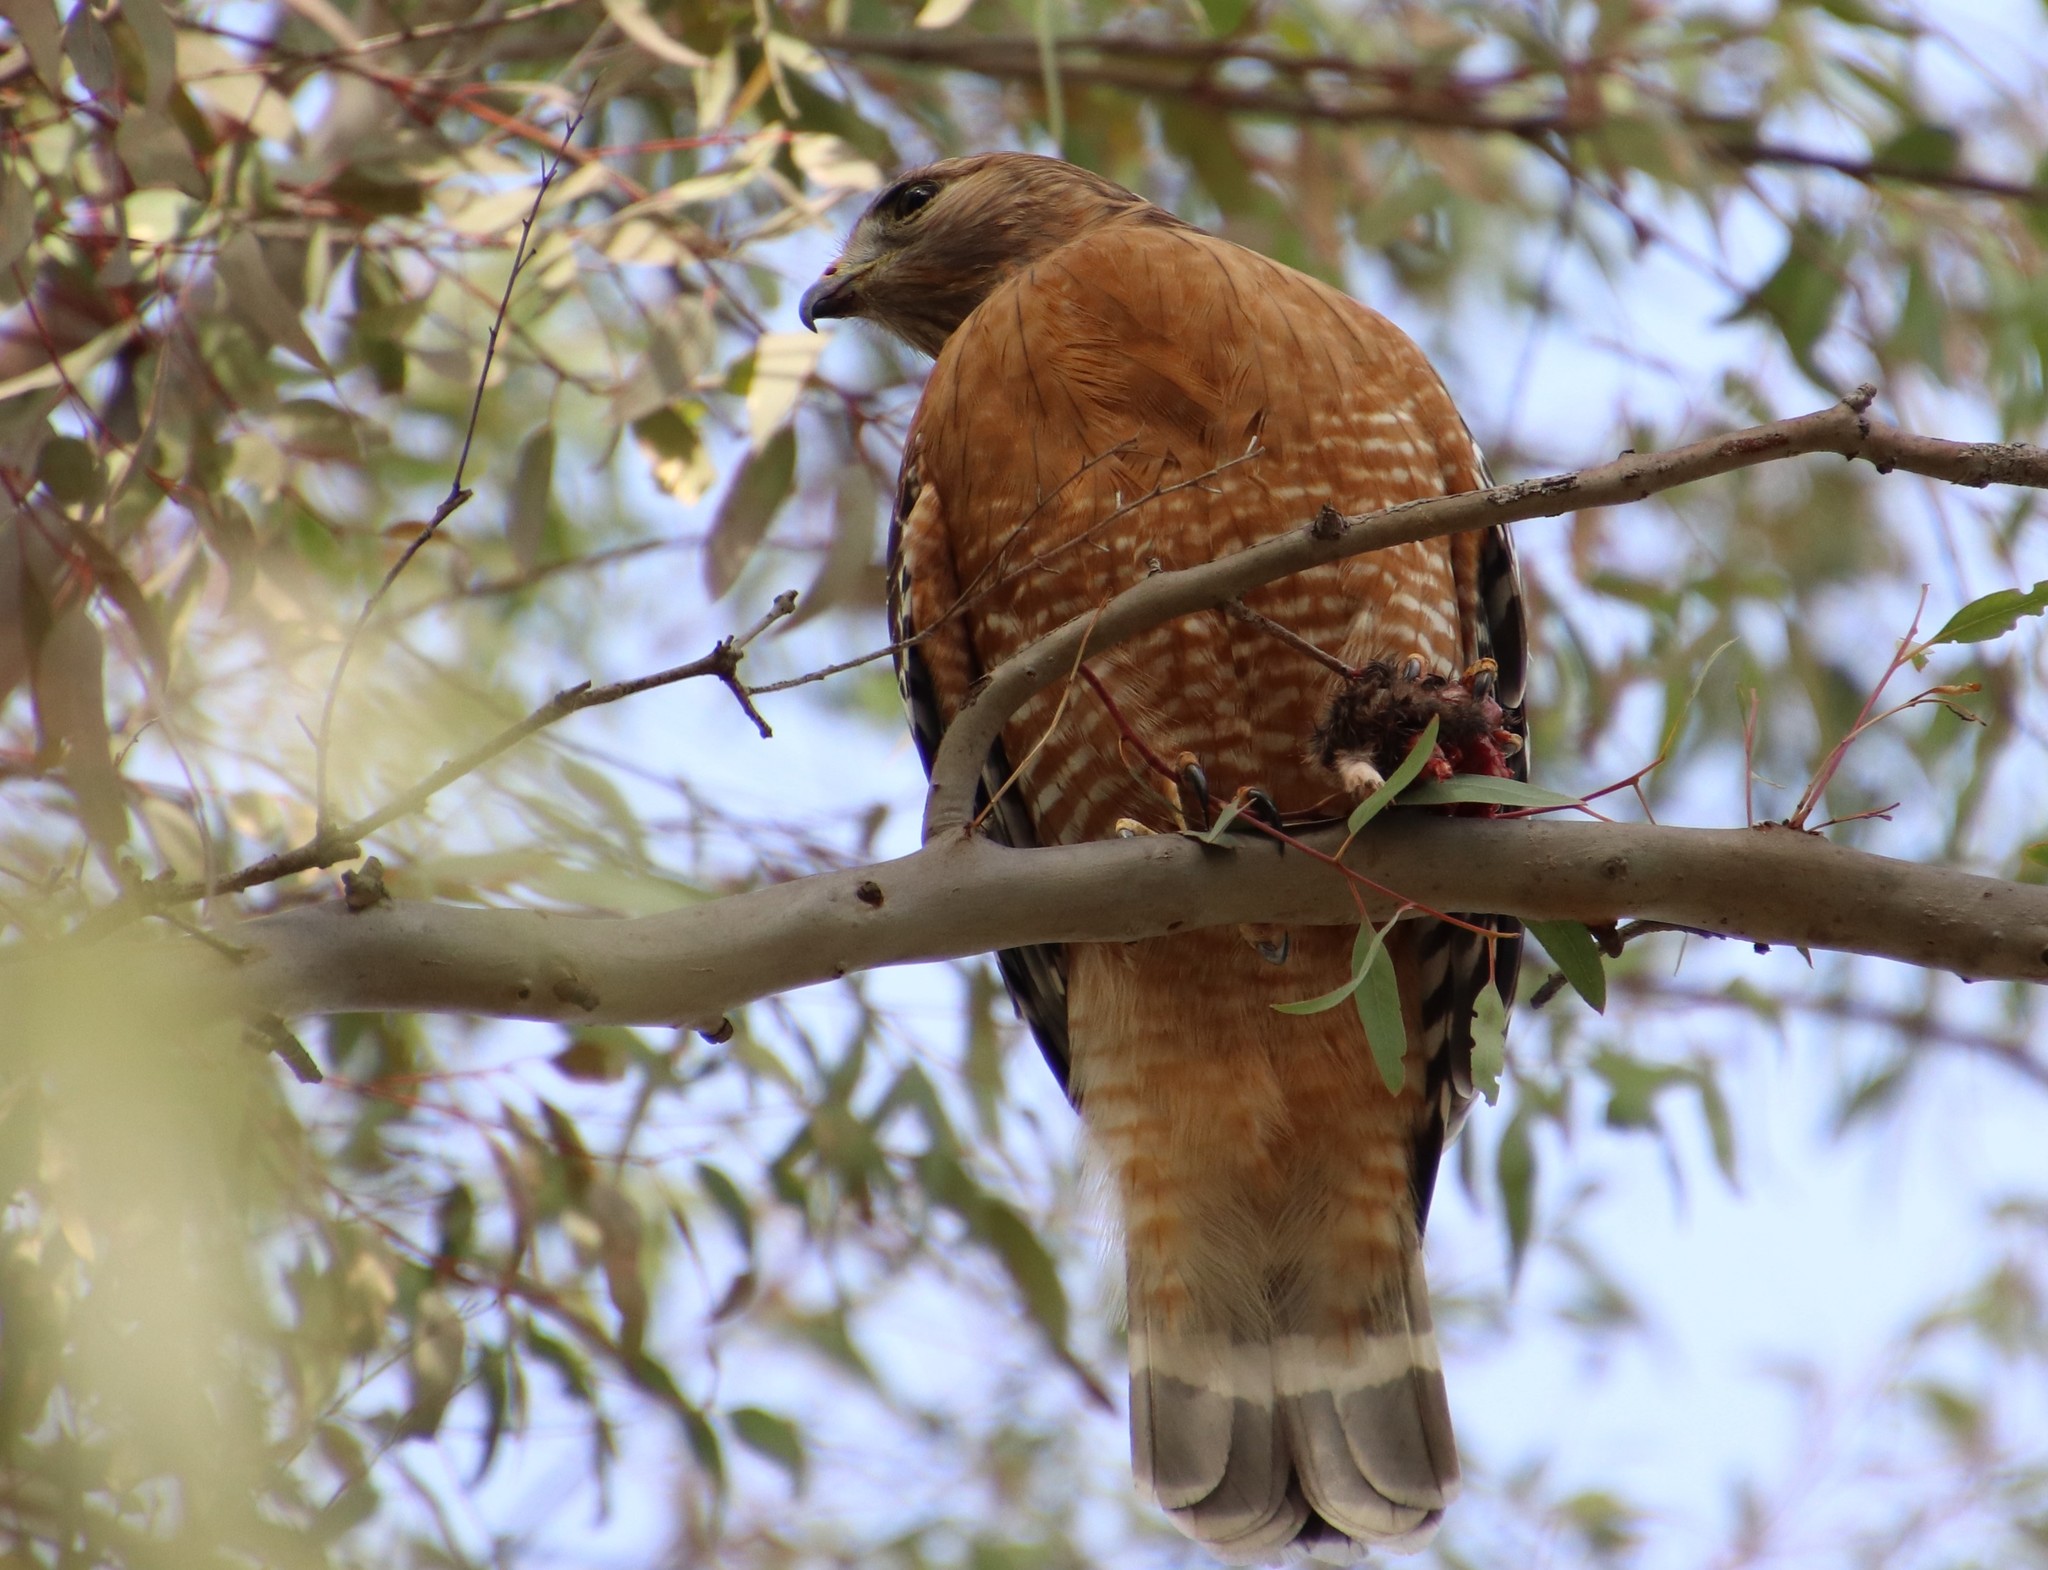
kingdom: Animalia
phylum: Chordata
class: Aves
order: Accipitriformes
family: Accipitridae
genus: Buteo
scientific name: Buteo lineatus
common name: Red-shouldered hawk
